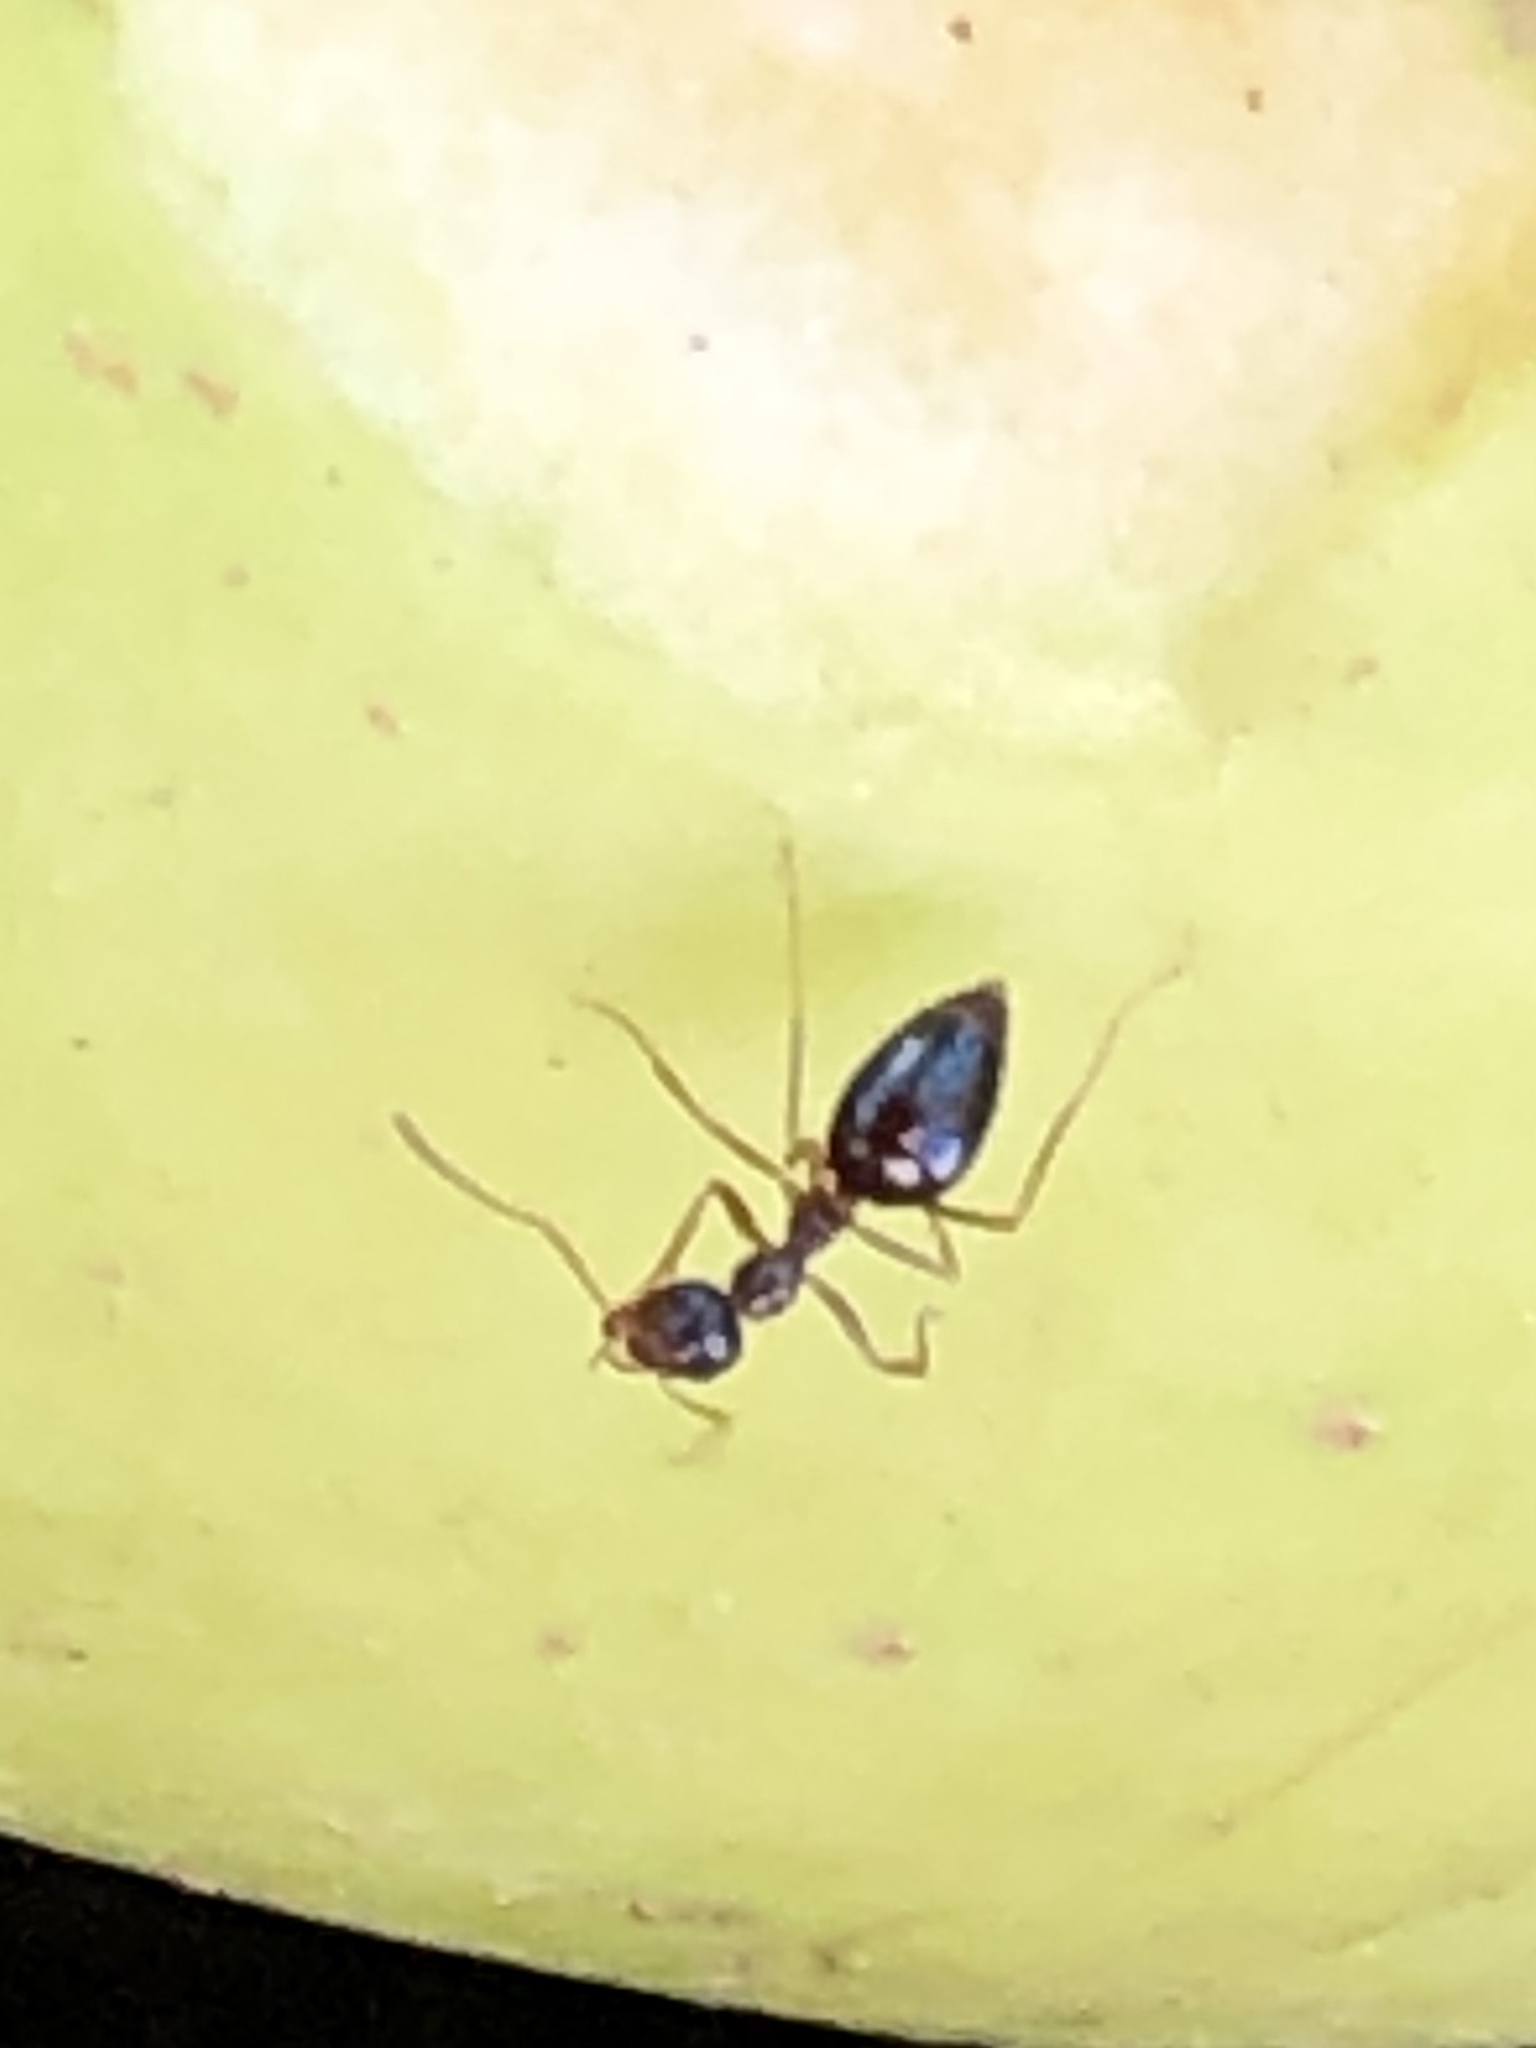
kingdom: Animalia
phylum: Arthropoda
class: Insecta
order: Hymenoptera
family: Formicidae
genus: Prenolepis
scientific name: Prenolepis imparis
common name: Small honey ant
